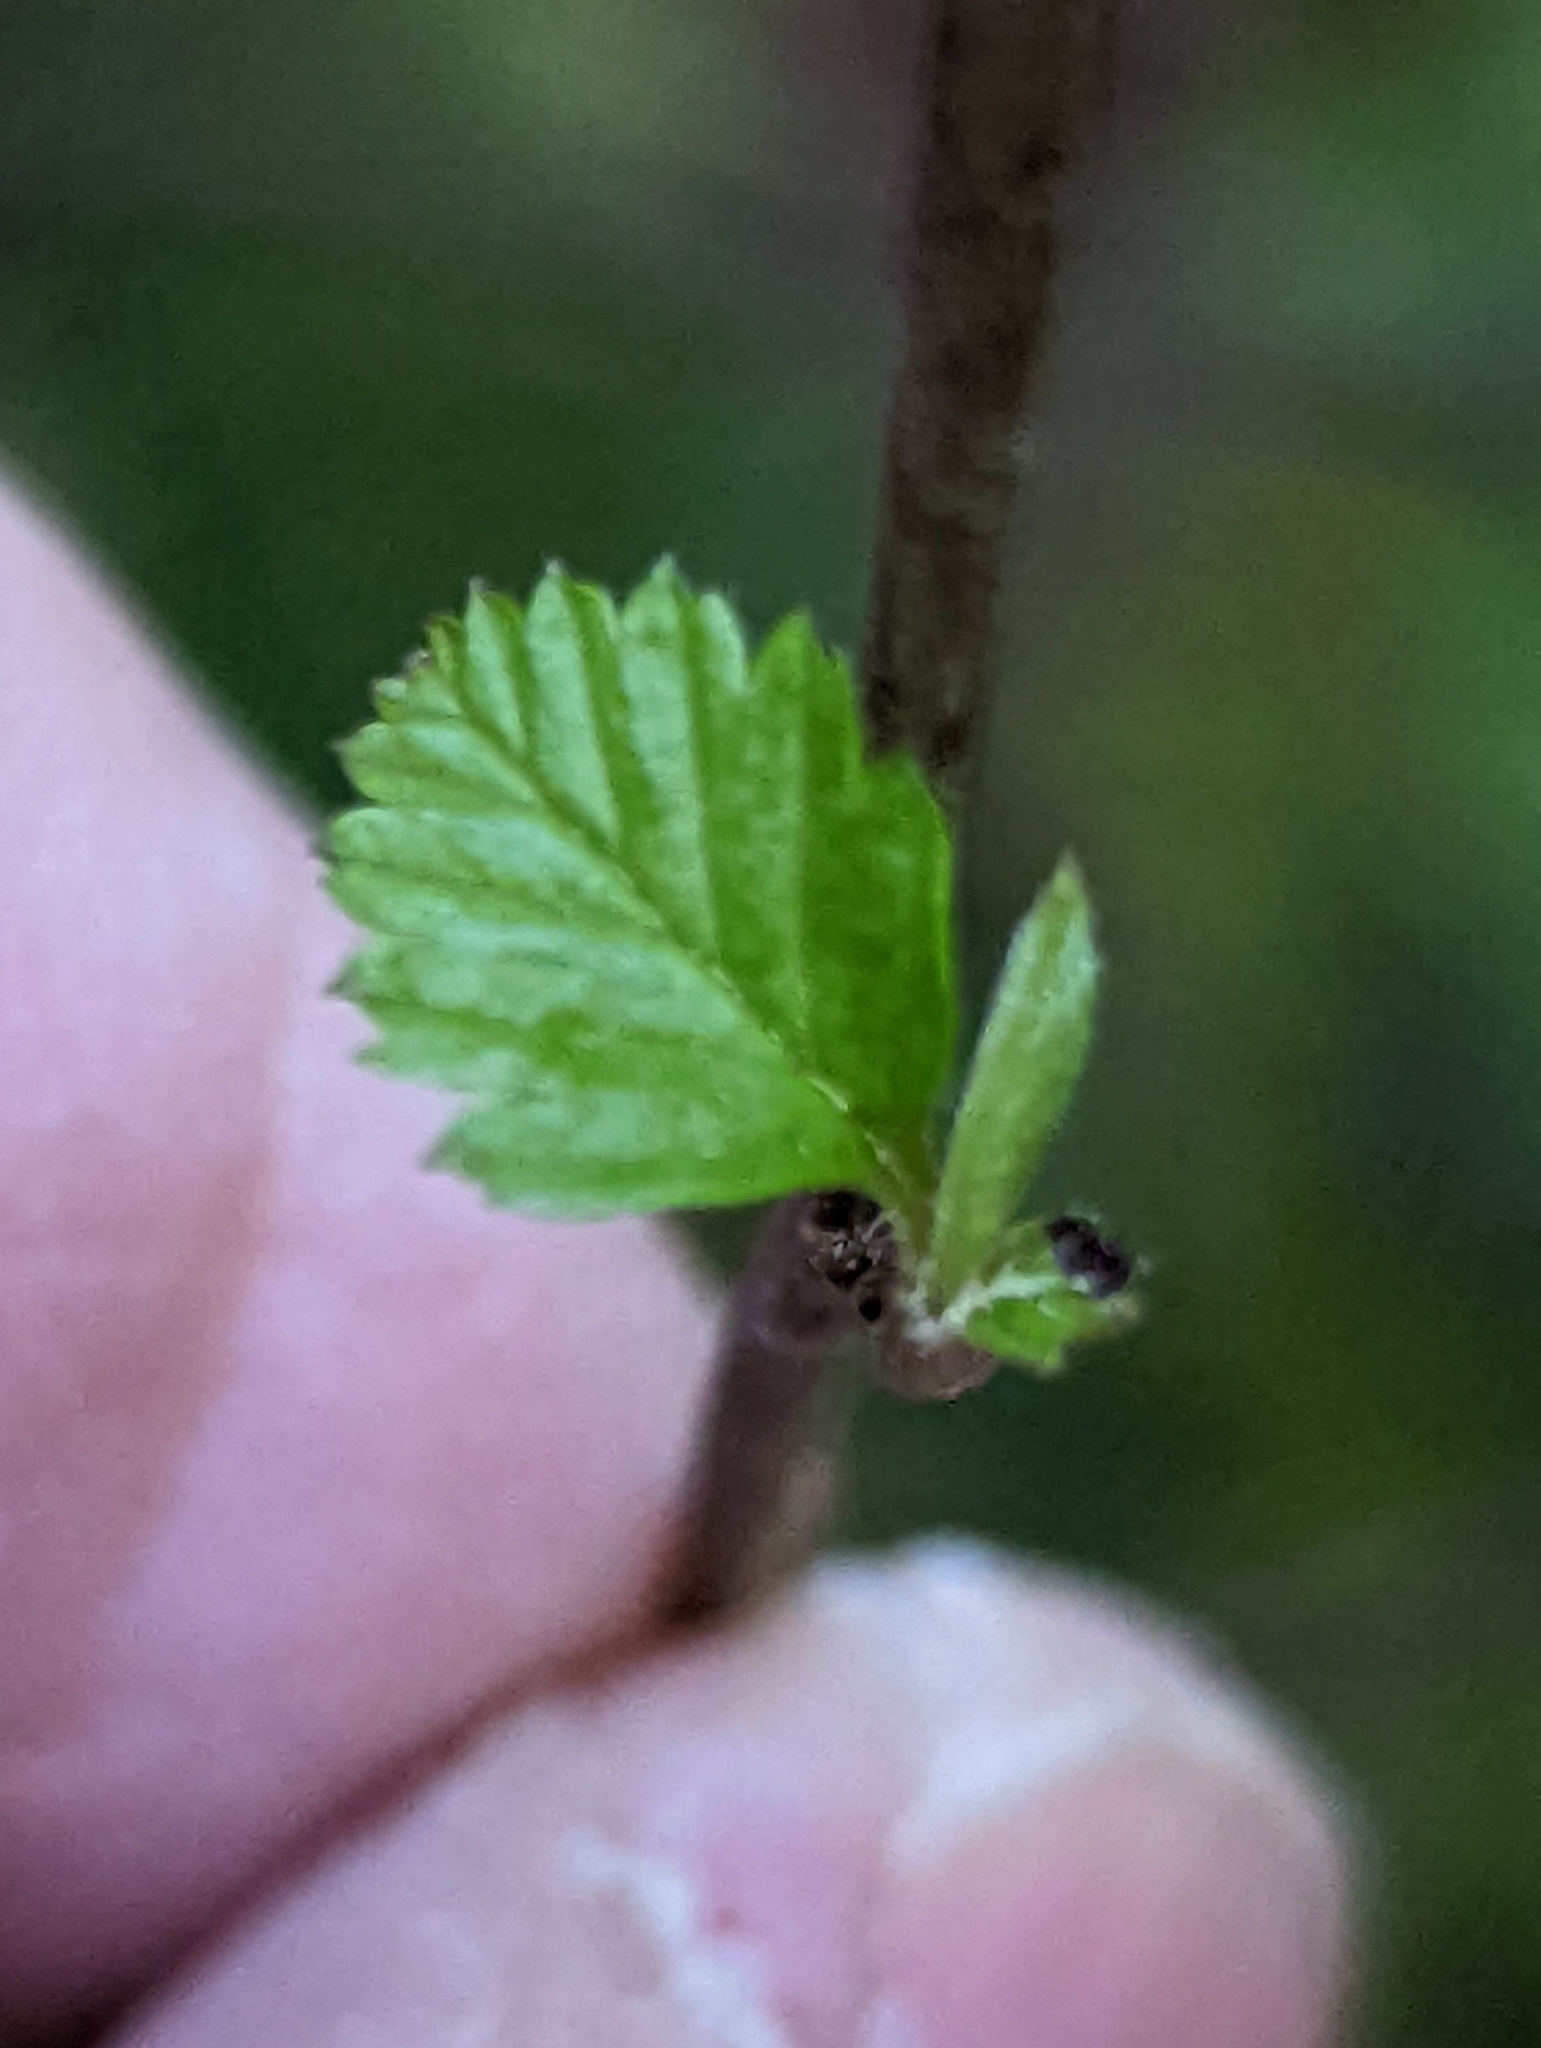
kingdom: Plantae
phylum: Tracheophyta
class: Magnoliopsida
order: Rosales
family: Rosaceae
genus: Holodiscus
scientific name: Holodiscus discolor
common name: Oceanspray
